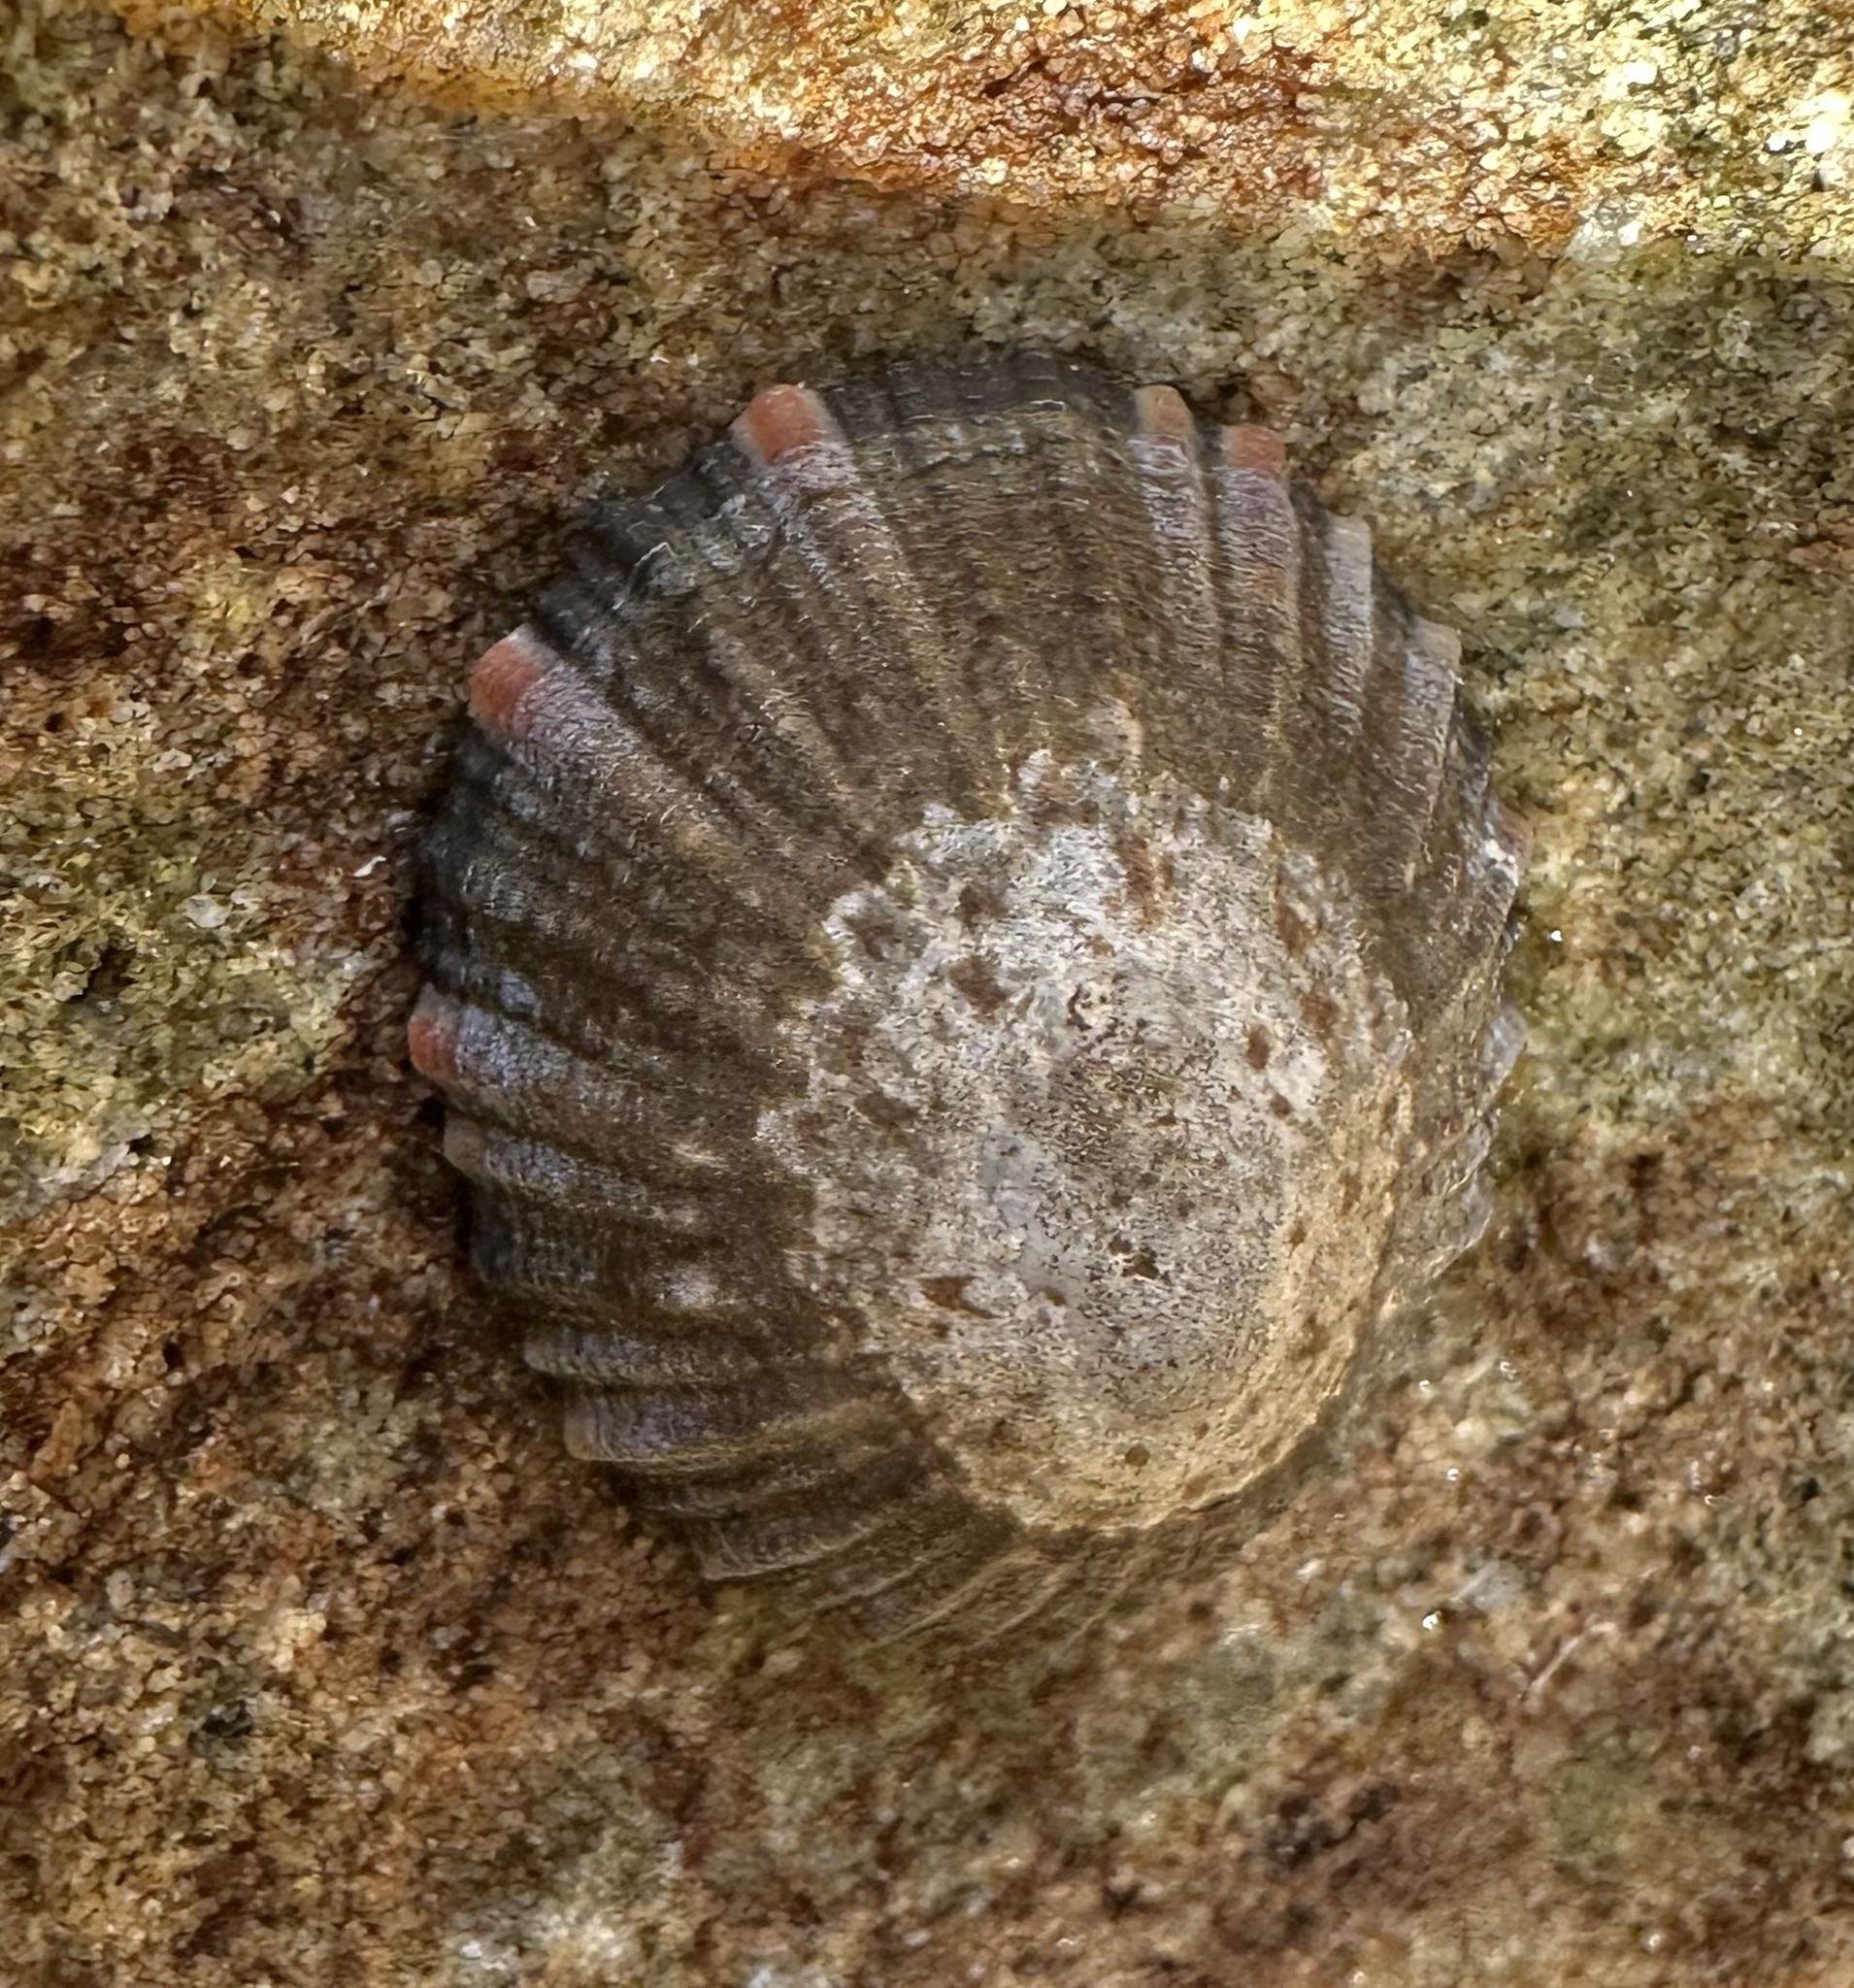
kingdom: Animalia
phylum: Mollusca
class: Gastropoda
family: Nacellidae
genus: Cellana
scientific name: Cellana tramoserica
